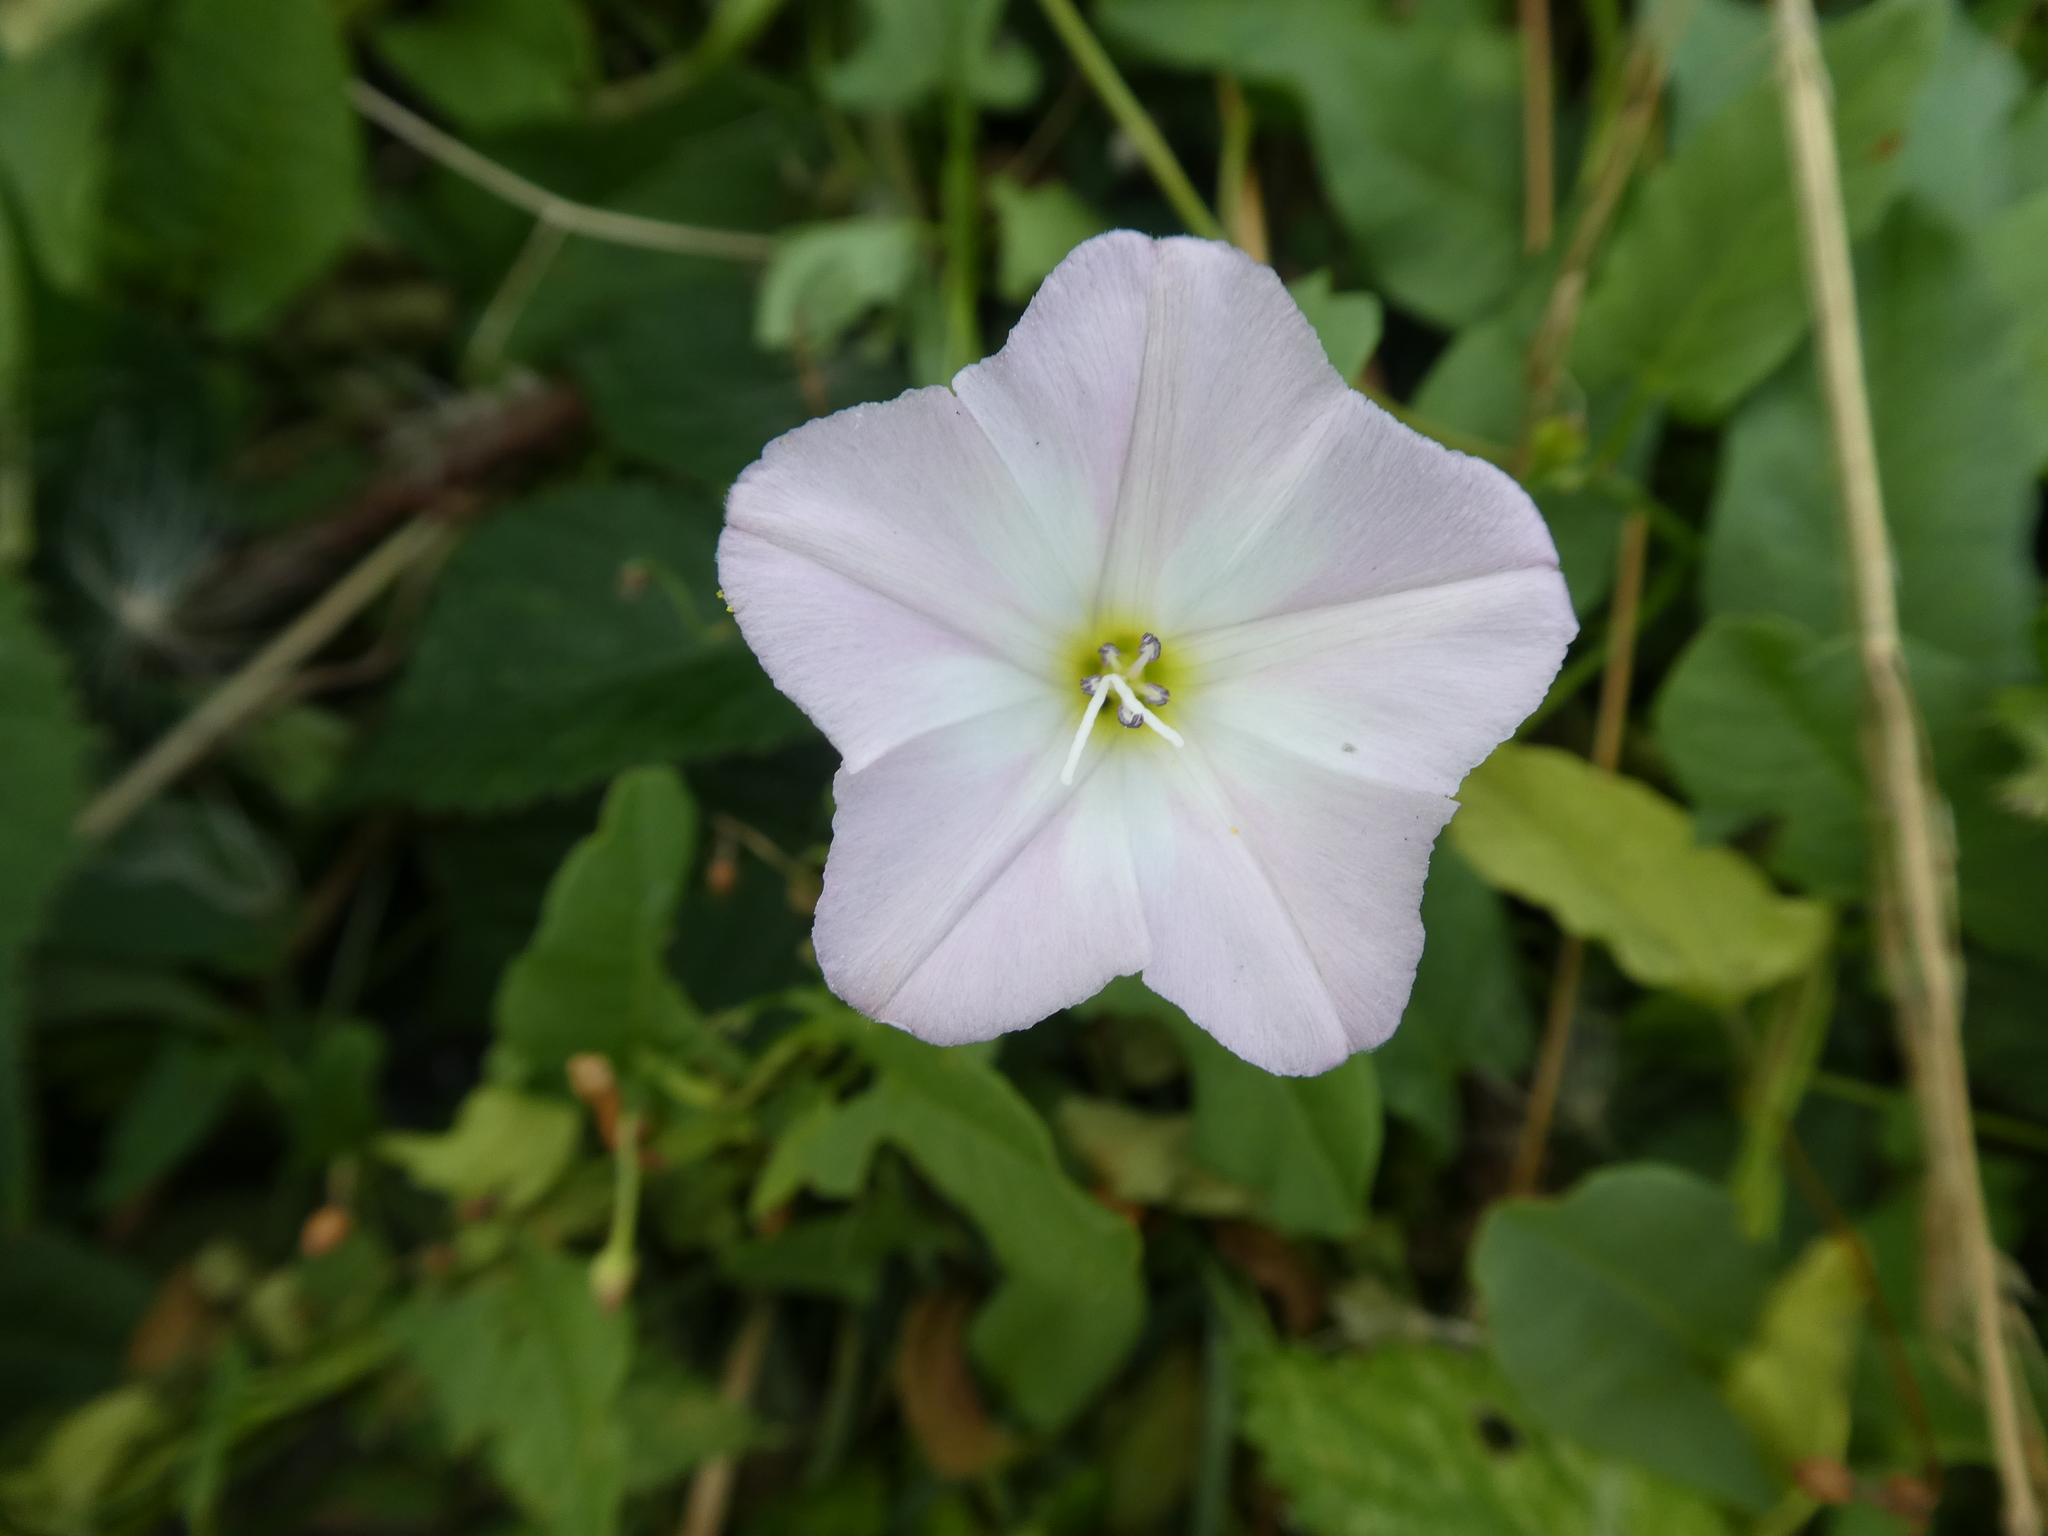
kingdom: Plantae
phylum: Tracheophyta
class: Magnoliopsida
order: Solanales
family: Convolvulaceae
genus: Convolvulus
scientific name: Convolvulus arvensis
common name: Field bindweed
